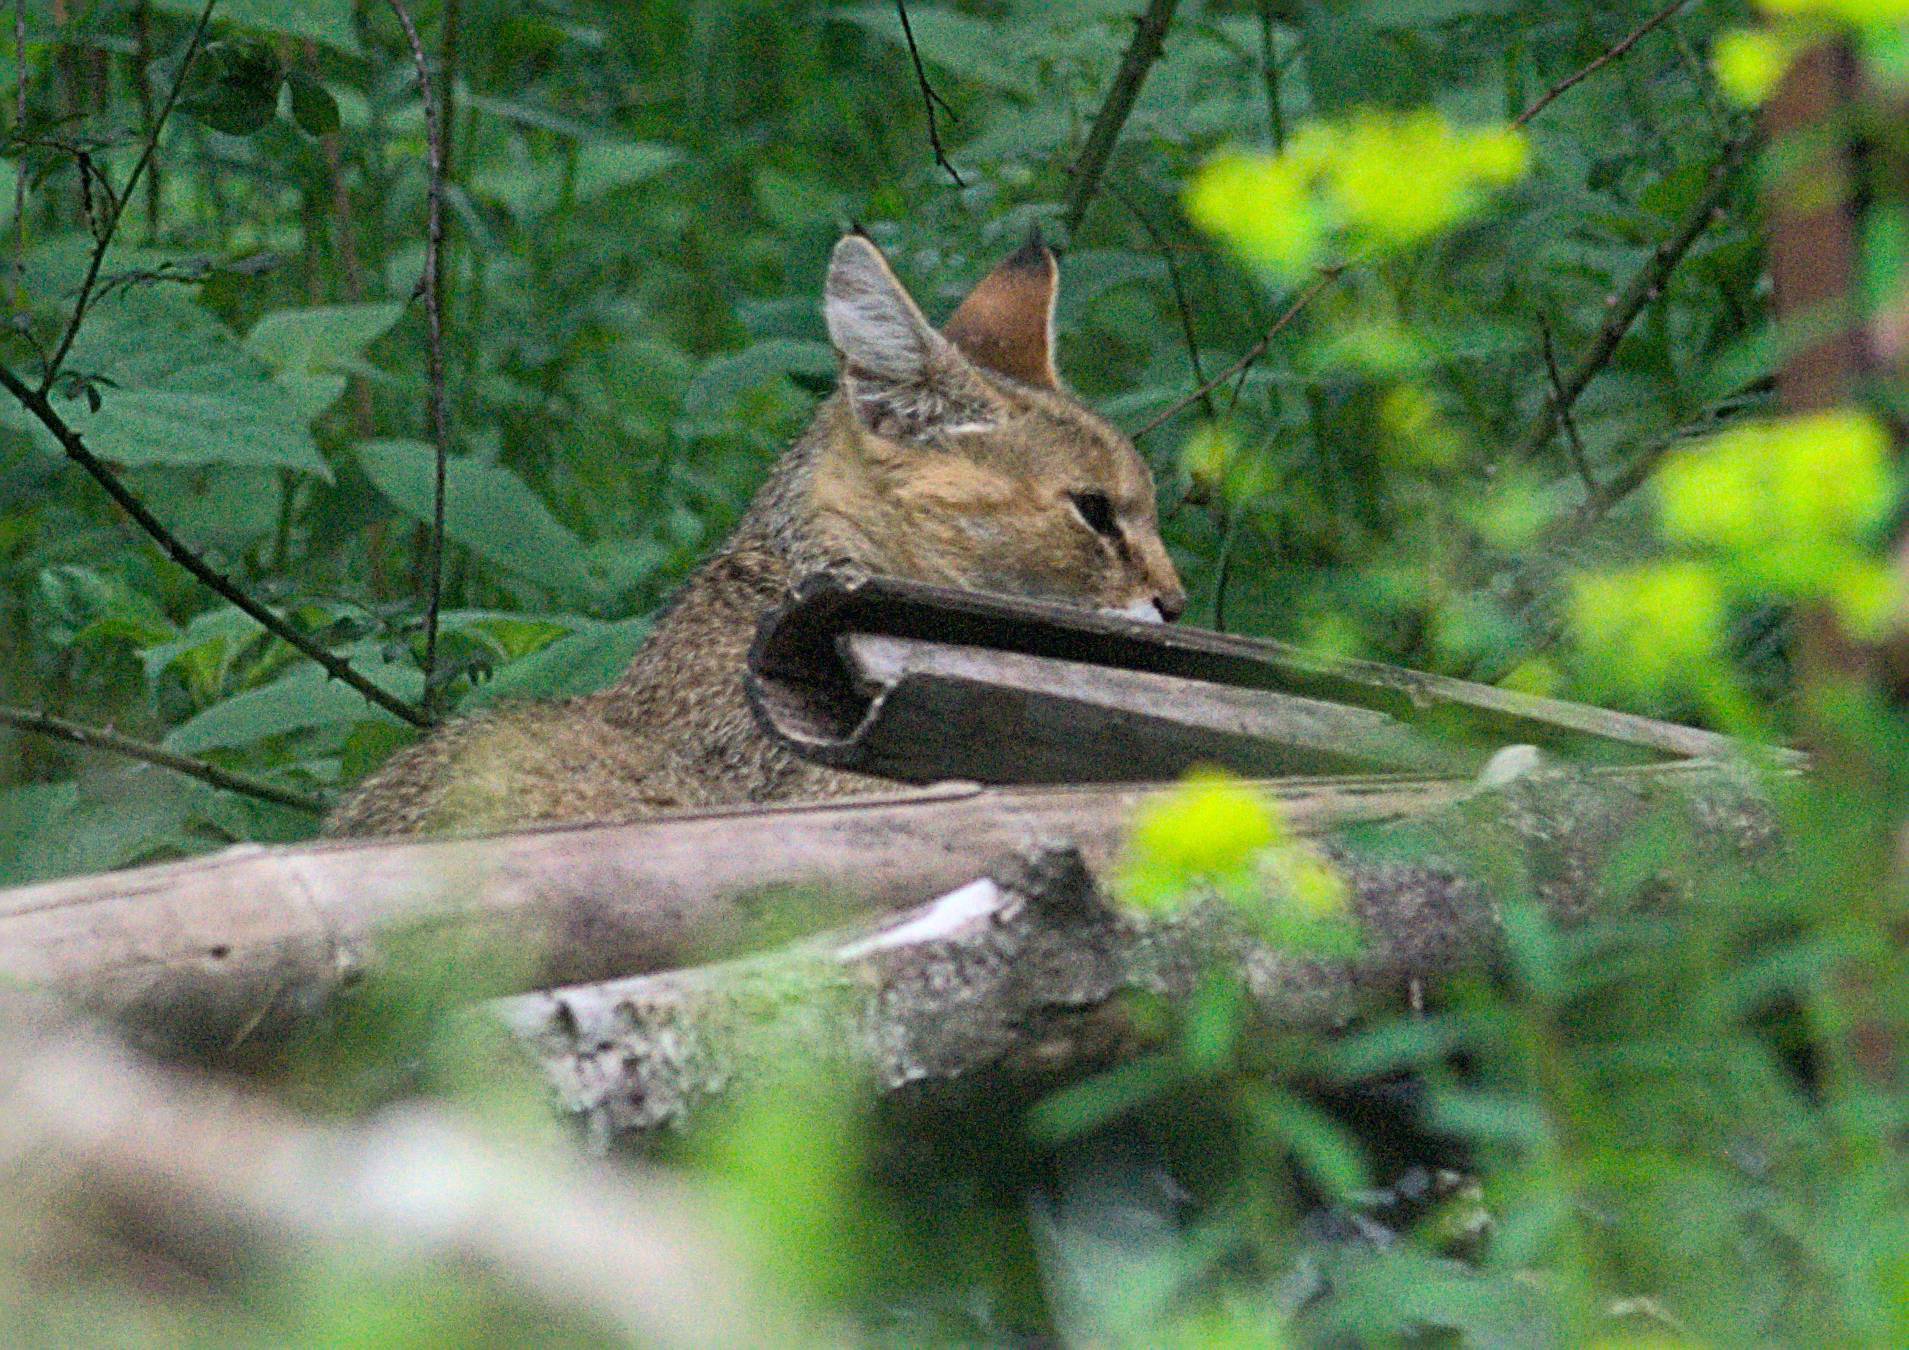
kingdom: Animalia
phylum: Chordata
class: Mammalia
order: Carnivora
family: Felidae
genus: Felis
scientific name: Felis chaus
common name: Jungle cat
